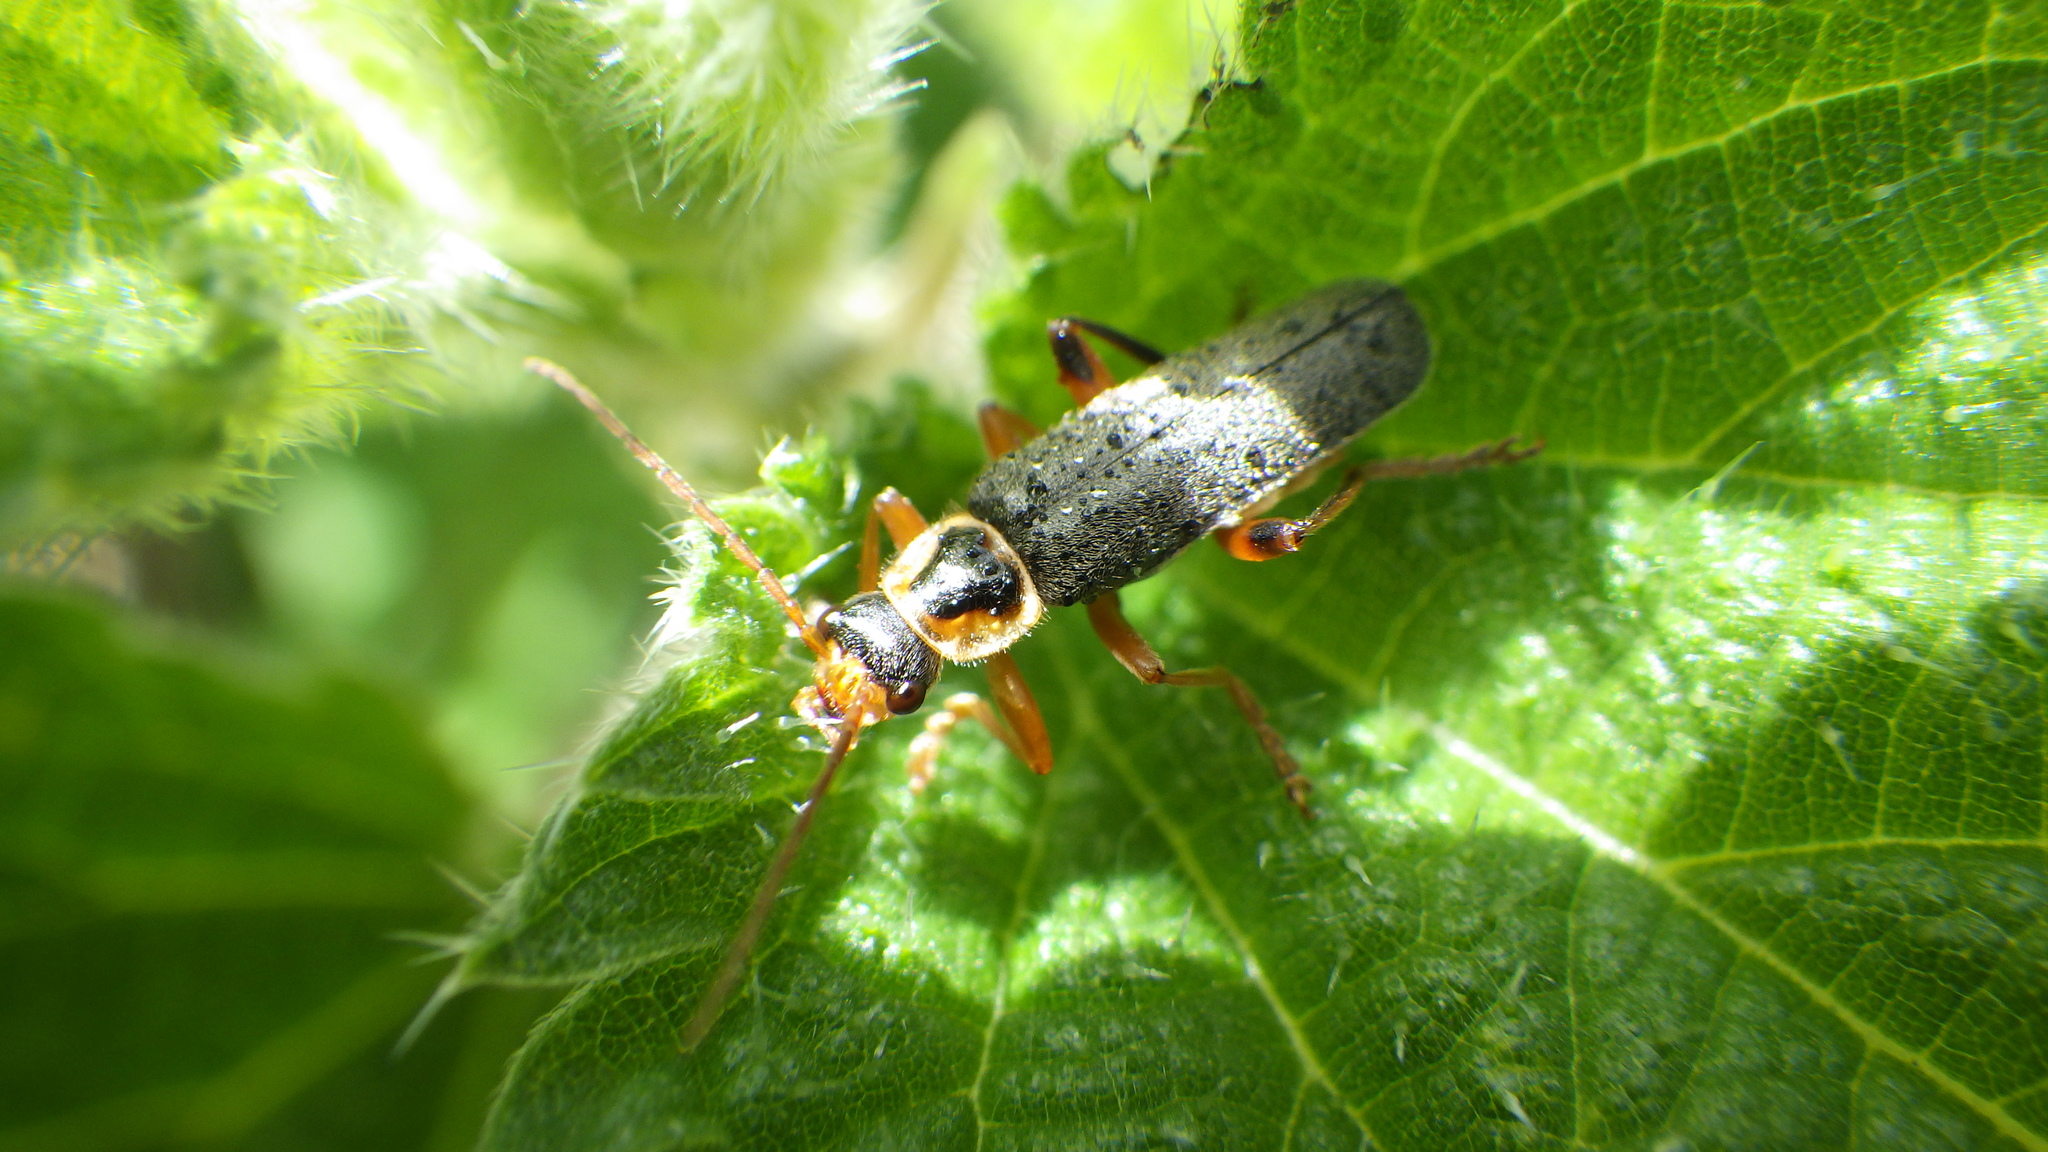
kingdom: Animalia
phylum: Arthropoda
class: Insecta
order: Coleoptera
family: Cantharidae
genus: Cantharis
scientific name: Cantharis nigricans
